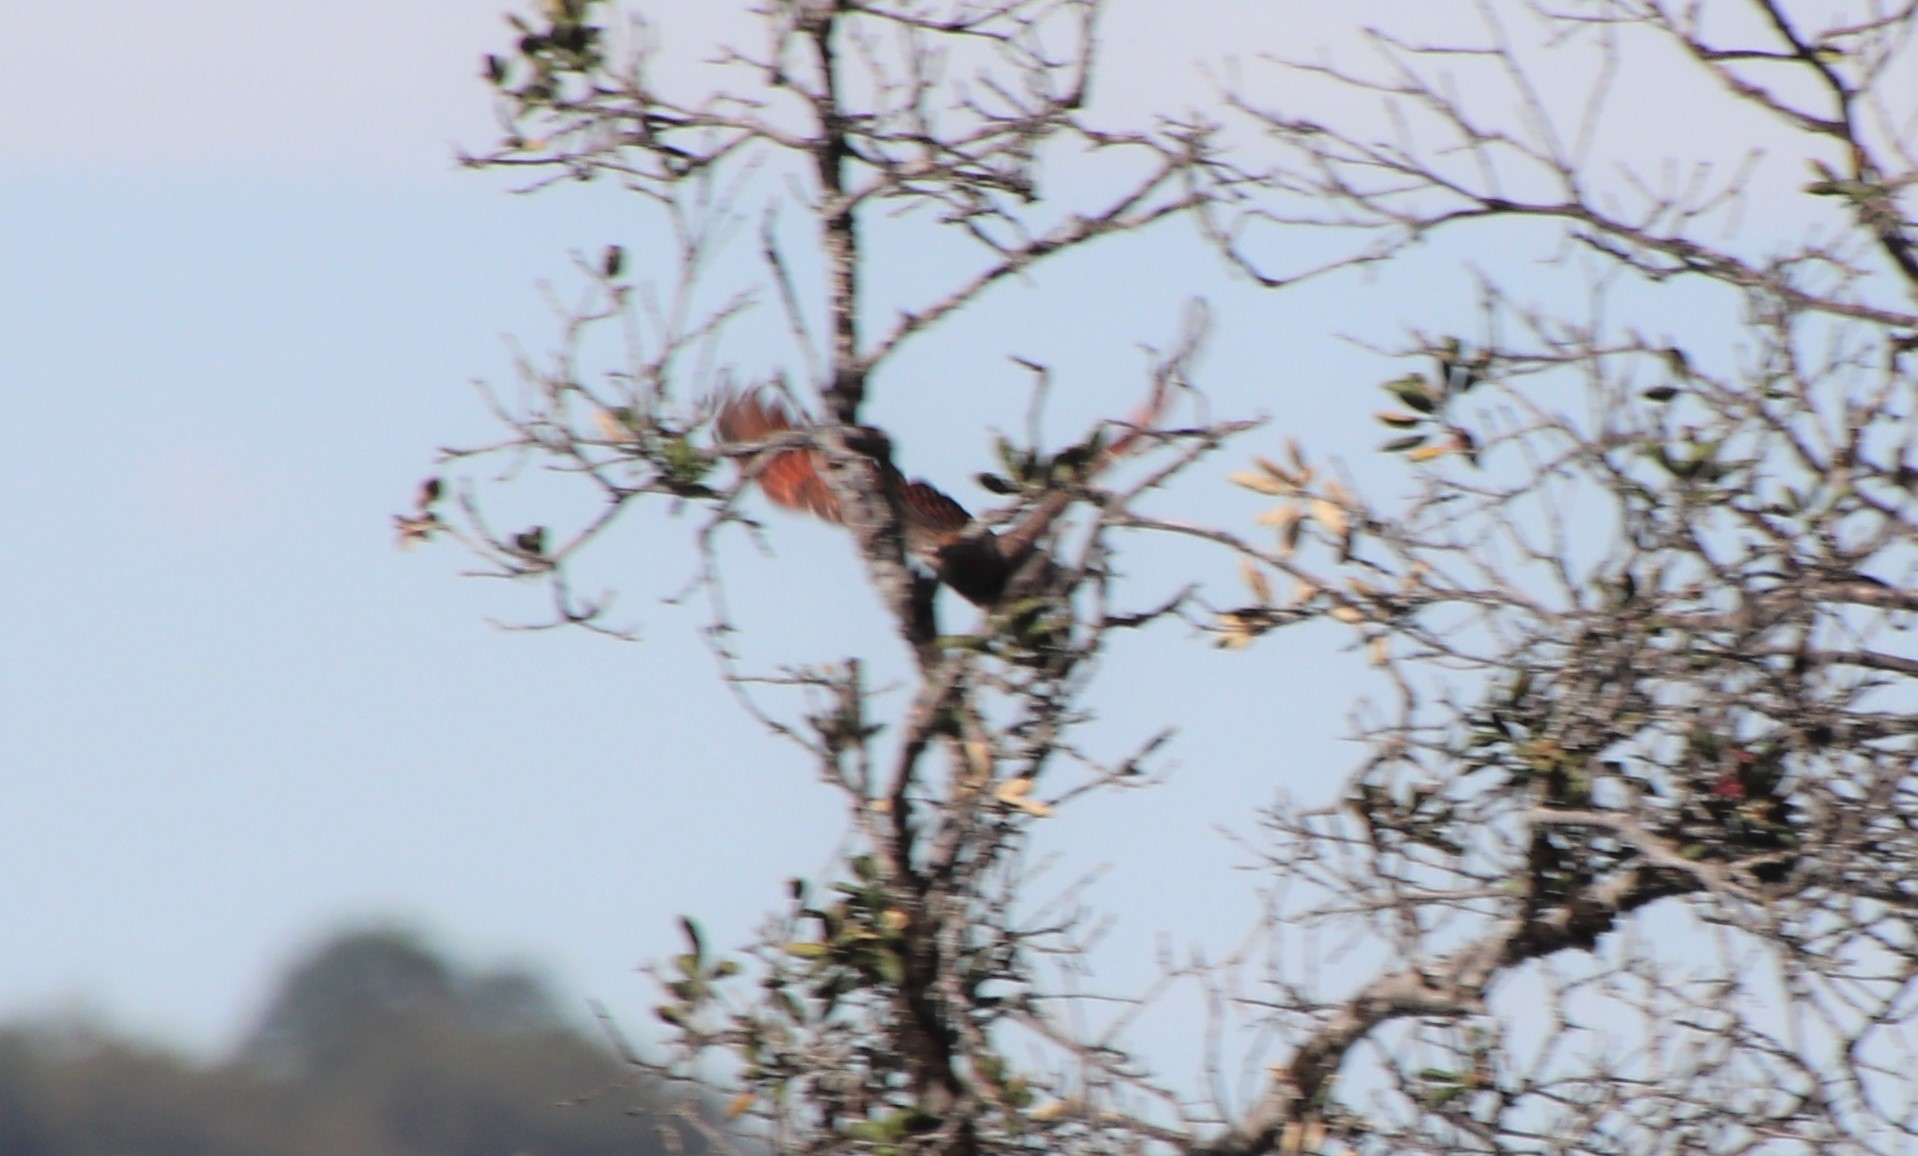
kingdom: Animalia
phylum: Chordata
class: Aves
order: Piciformes
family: Picidae
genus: Colaptes
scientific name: Colaptes auratus
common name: Northern flicker
